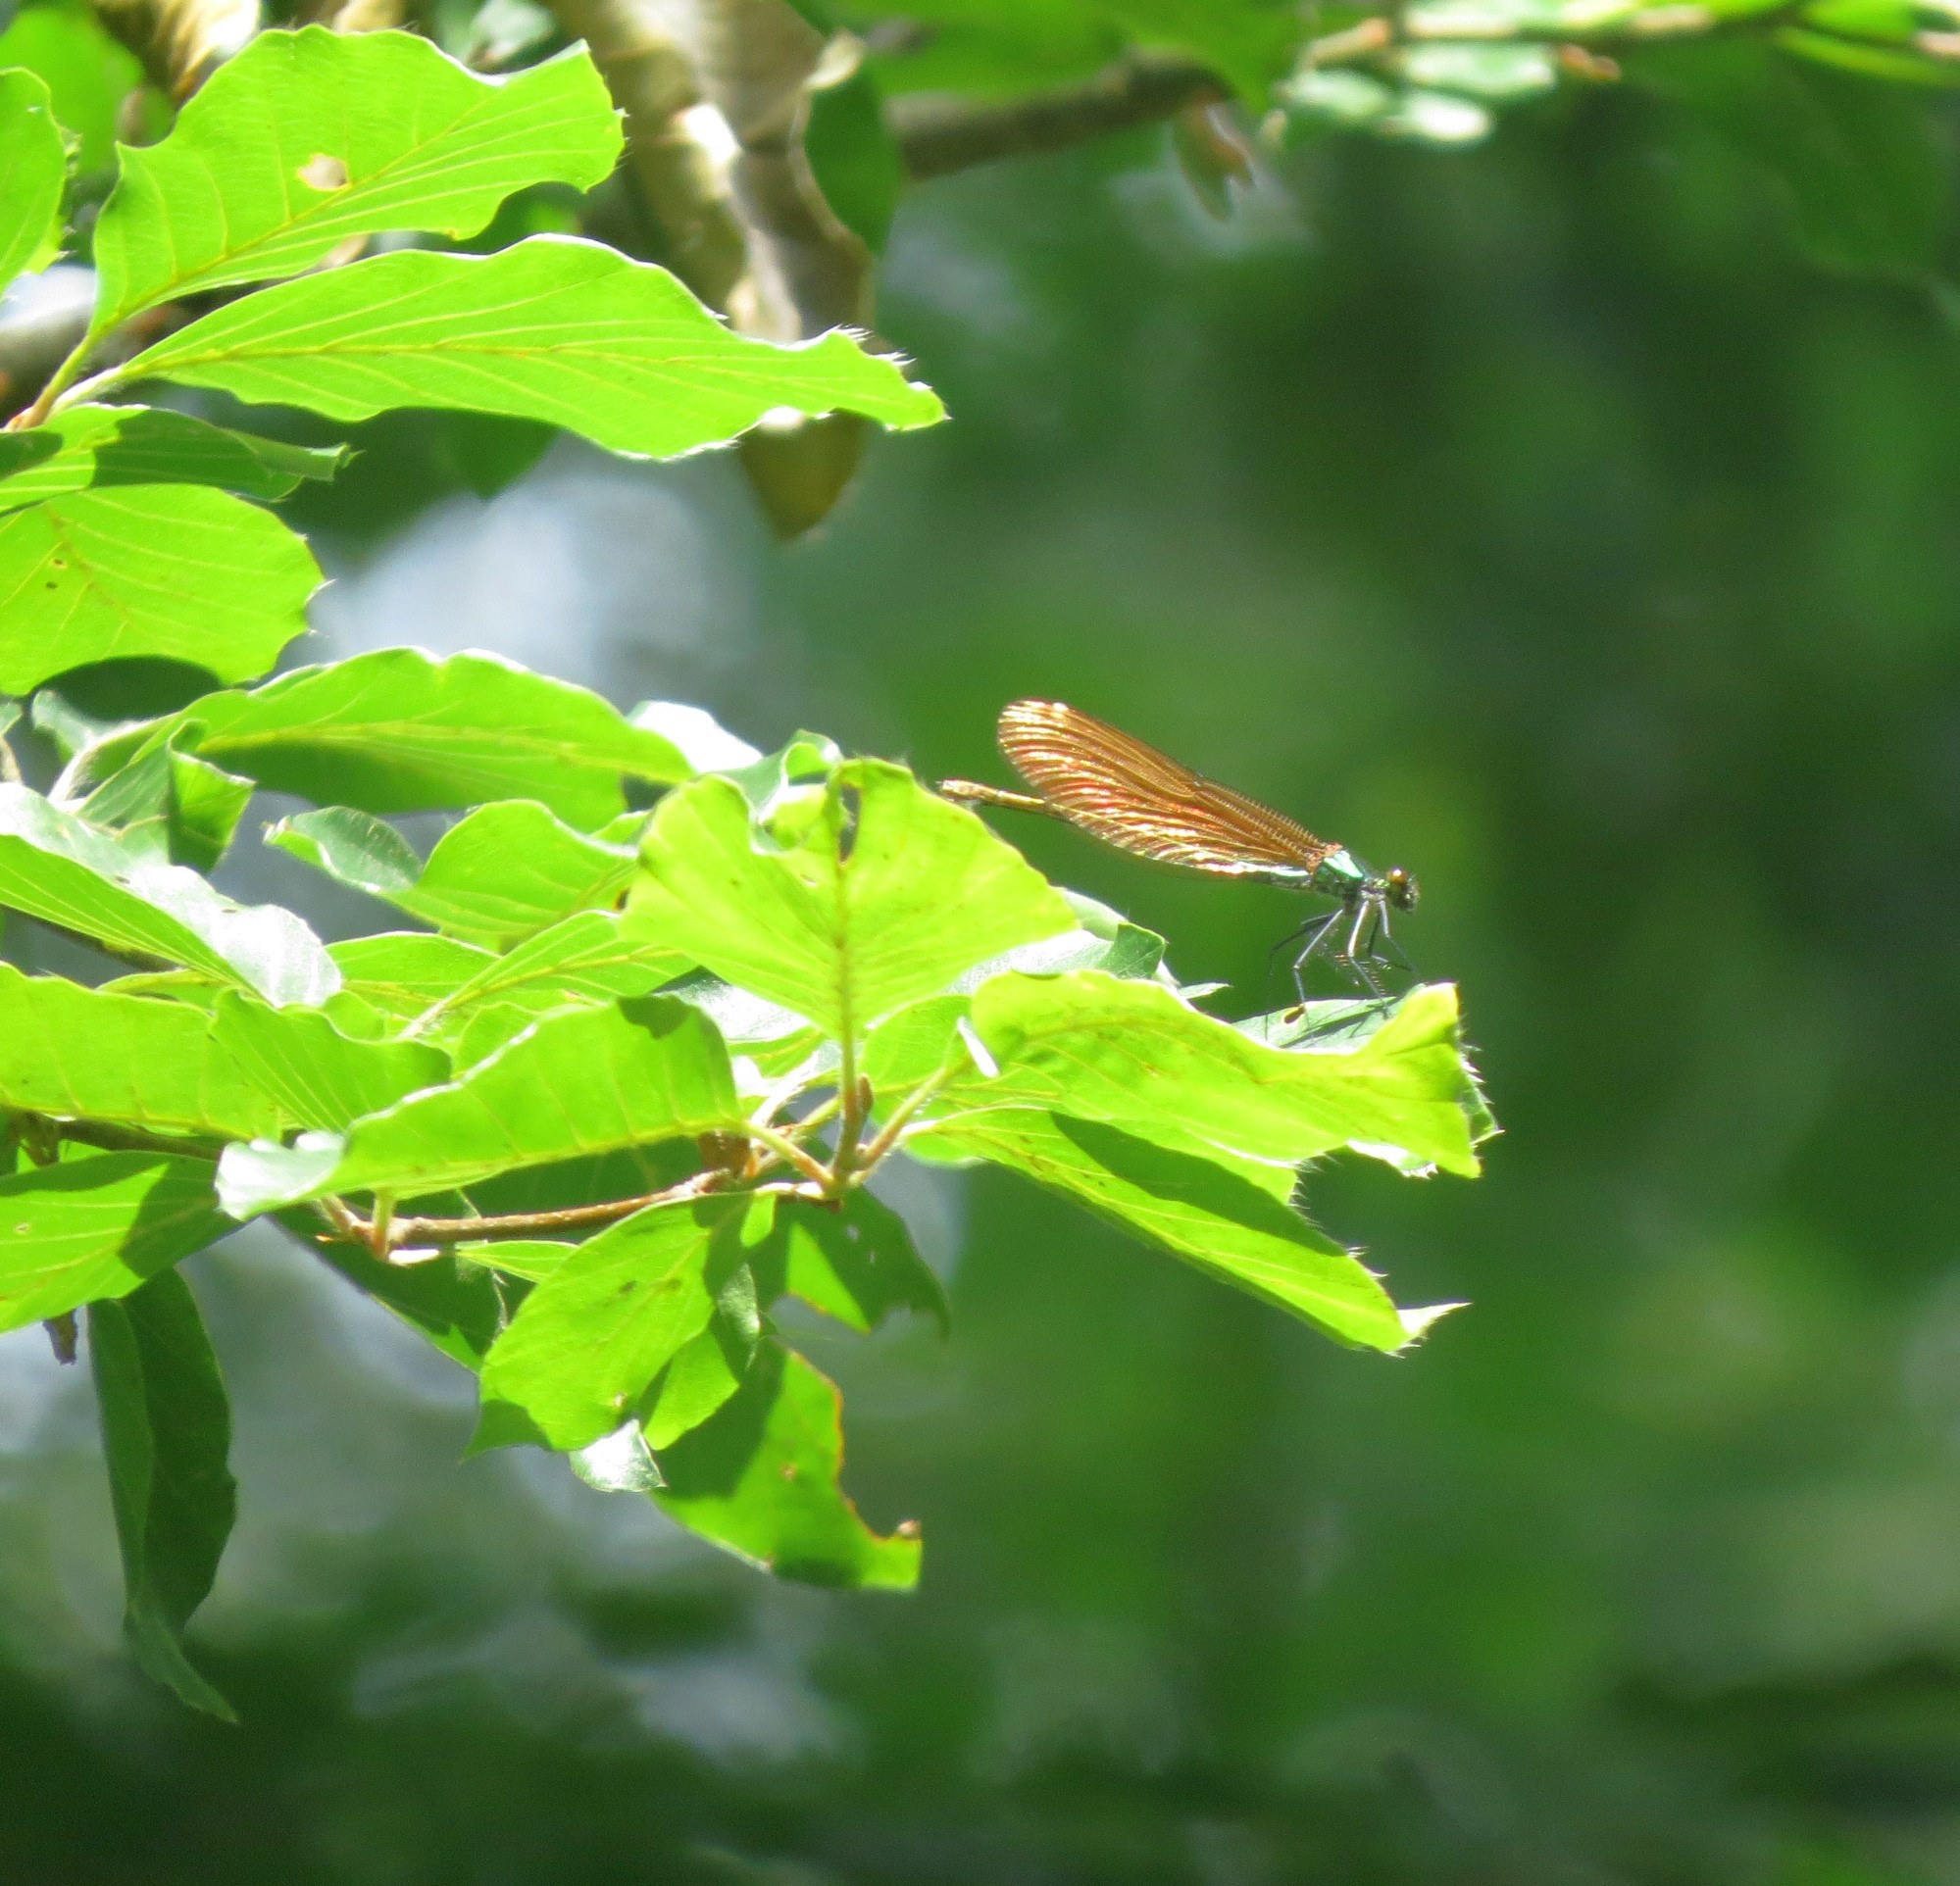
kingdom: Animalia
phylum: Arthropoda
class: Insecta
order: Odonata
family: Calopterygidae
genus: Calopteryx
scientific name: Calopteryx virgo
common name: Beautiful demoiselle
